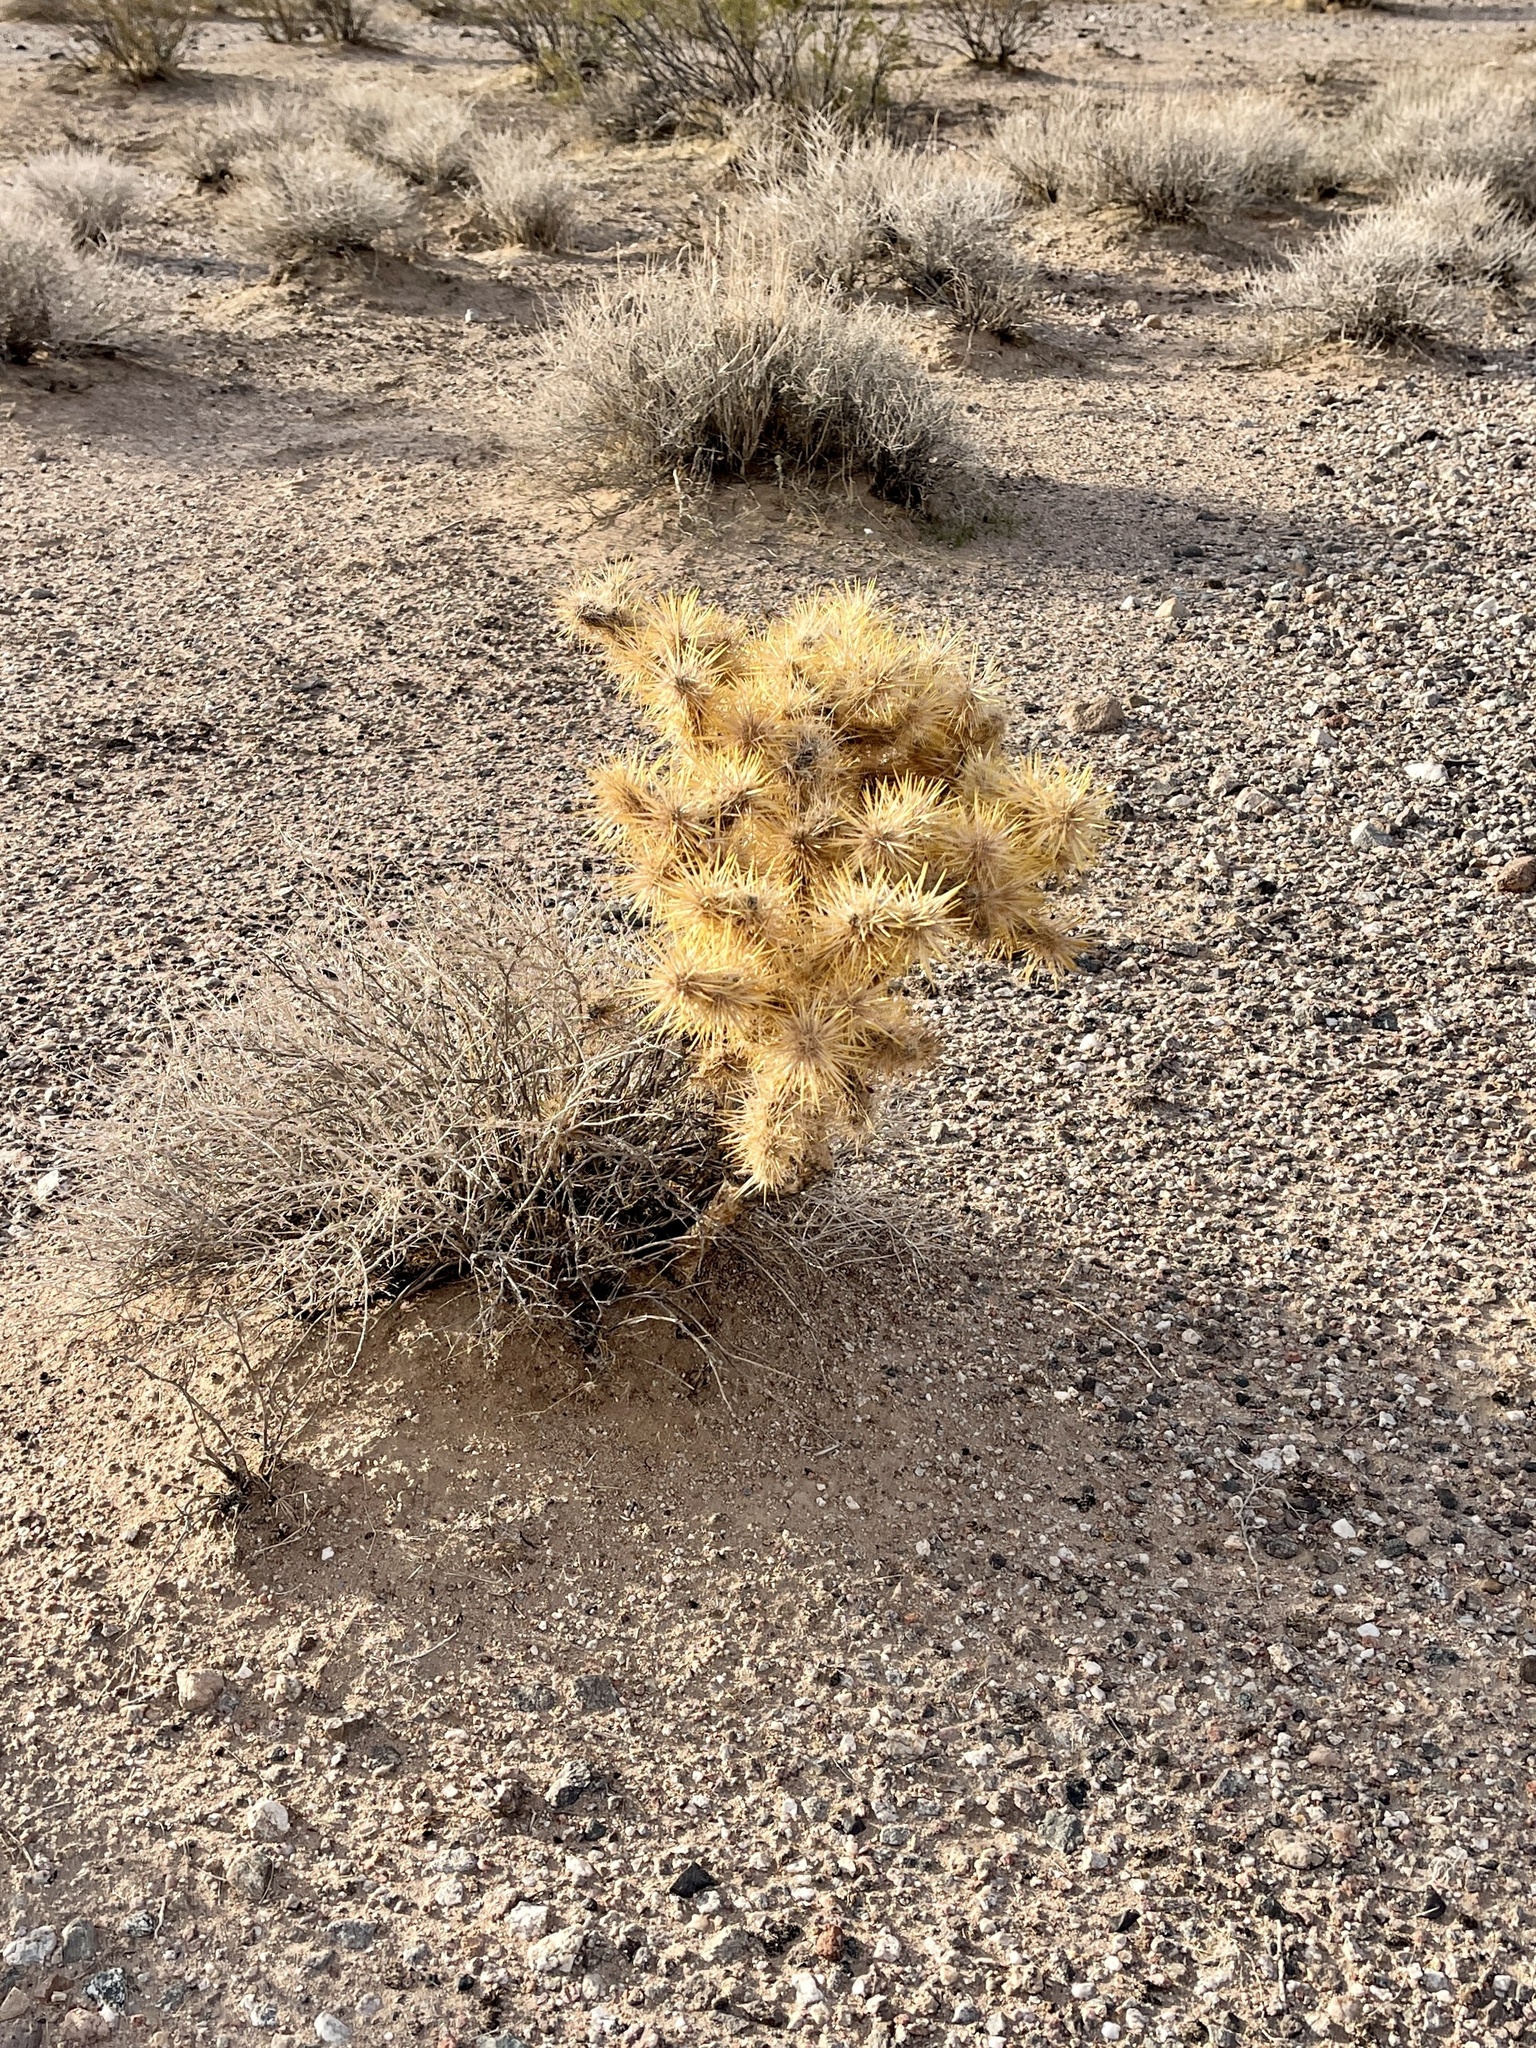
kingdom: Plantae
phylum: Tracheophyta
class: Magnoliopsida
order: Caryophyllales
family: Cactaceae
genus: Cylindropuntia
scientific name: Cylindropuntia echinocarpa
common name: Ground cholla
